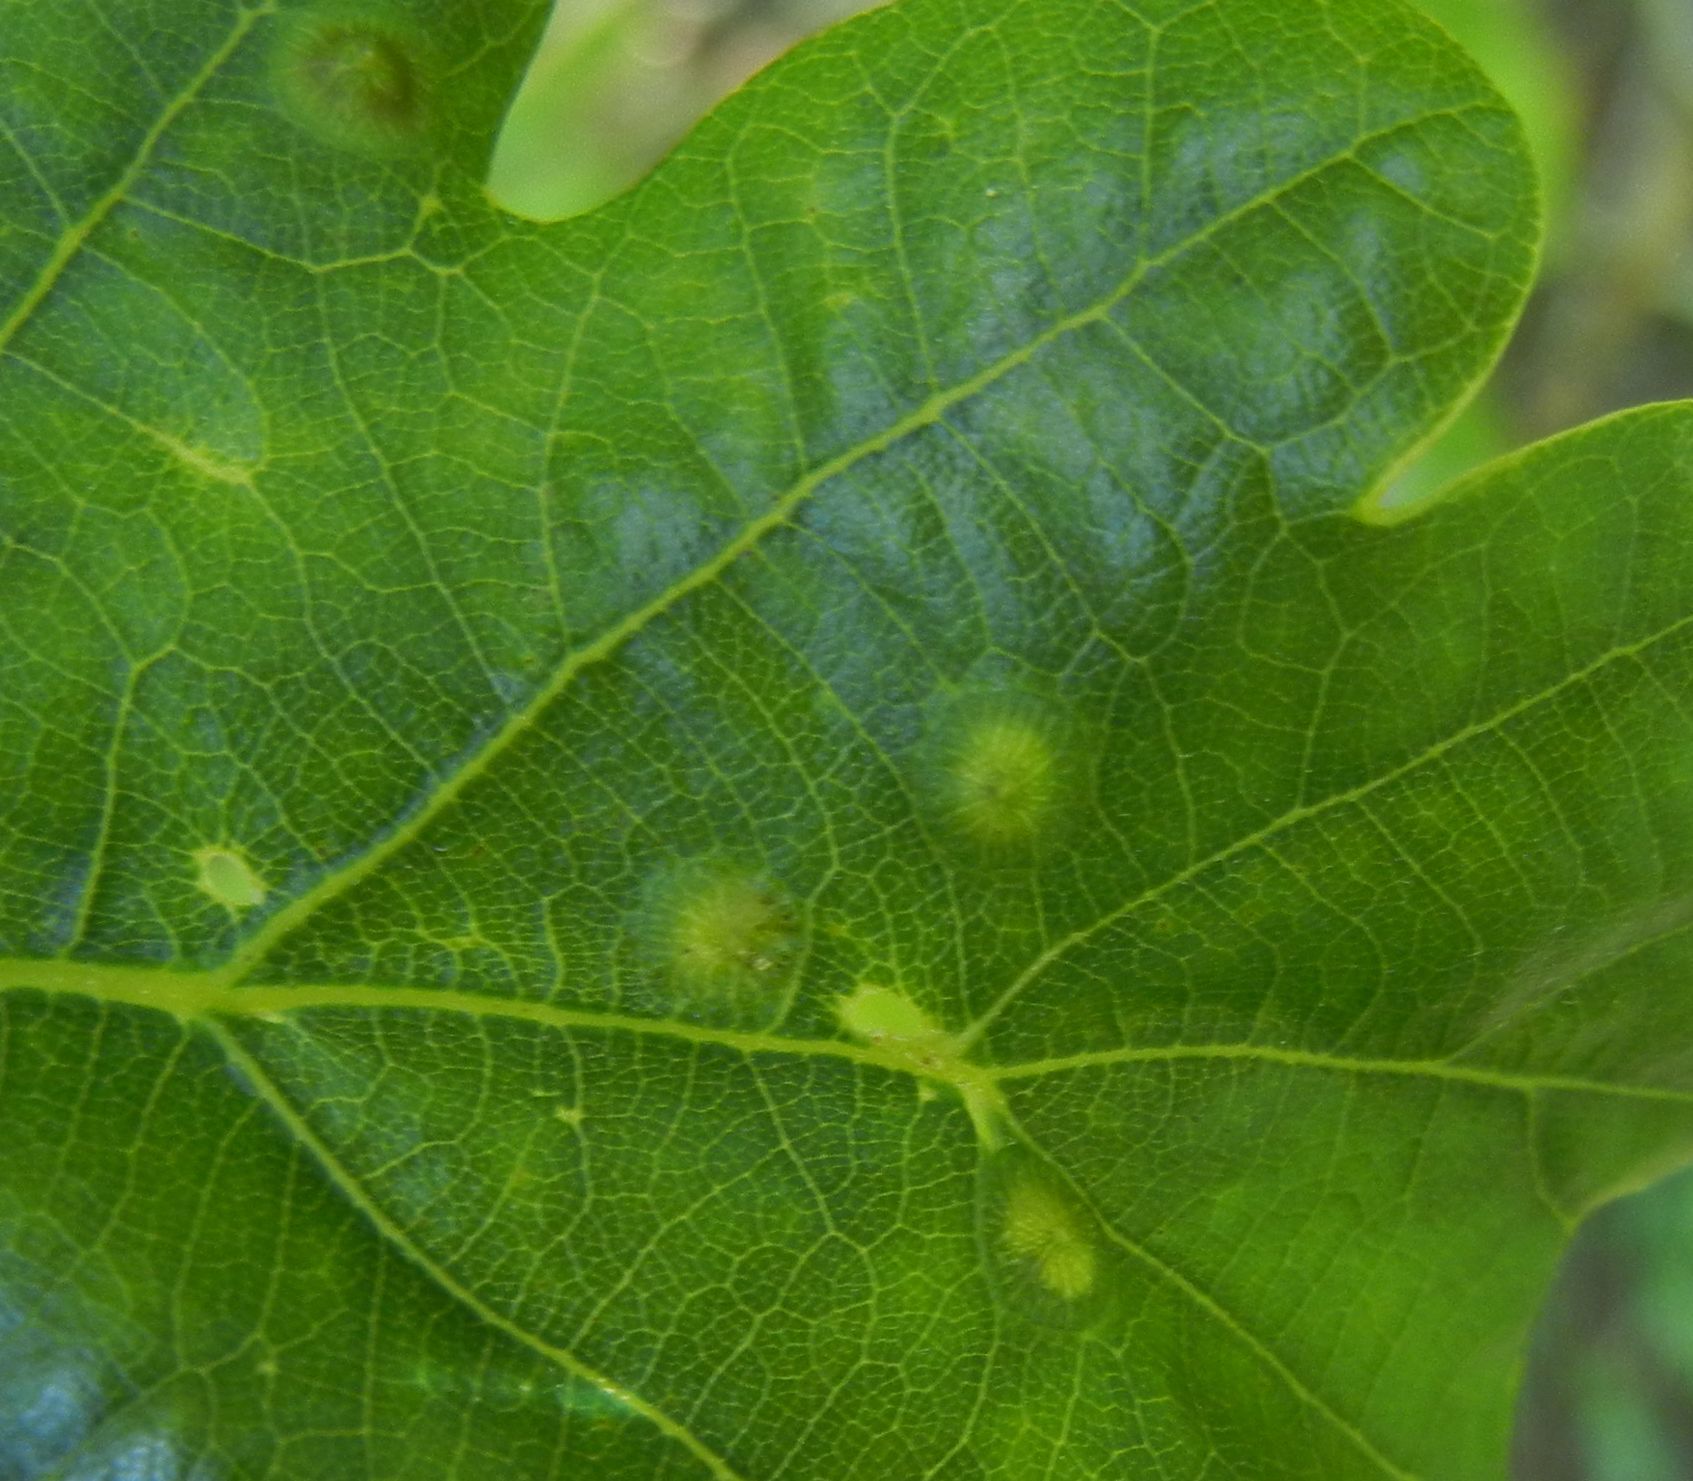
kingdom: Animalia
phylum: Arthropoda
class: Insecta
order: Hymenoptera
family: Cynipidae
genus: Neuroterus
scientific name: Neuroterus numismalis
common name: Silk-button spangle gall
